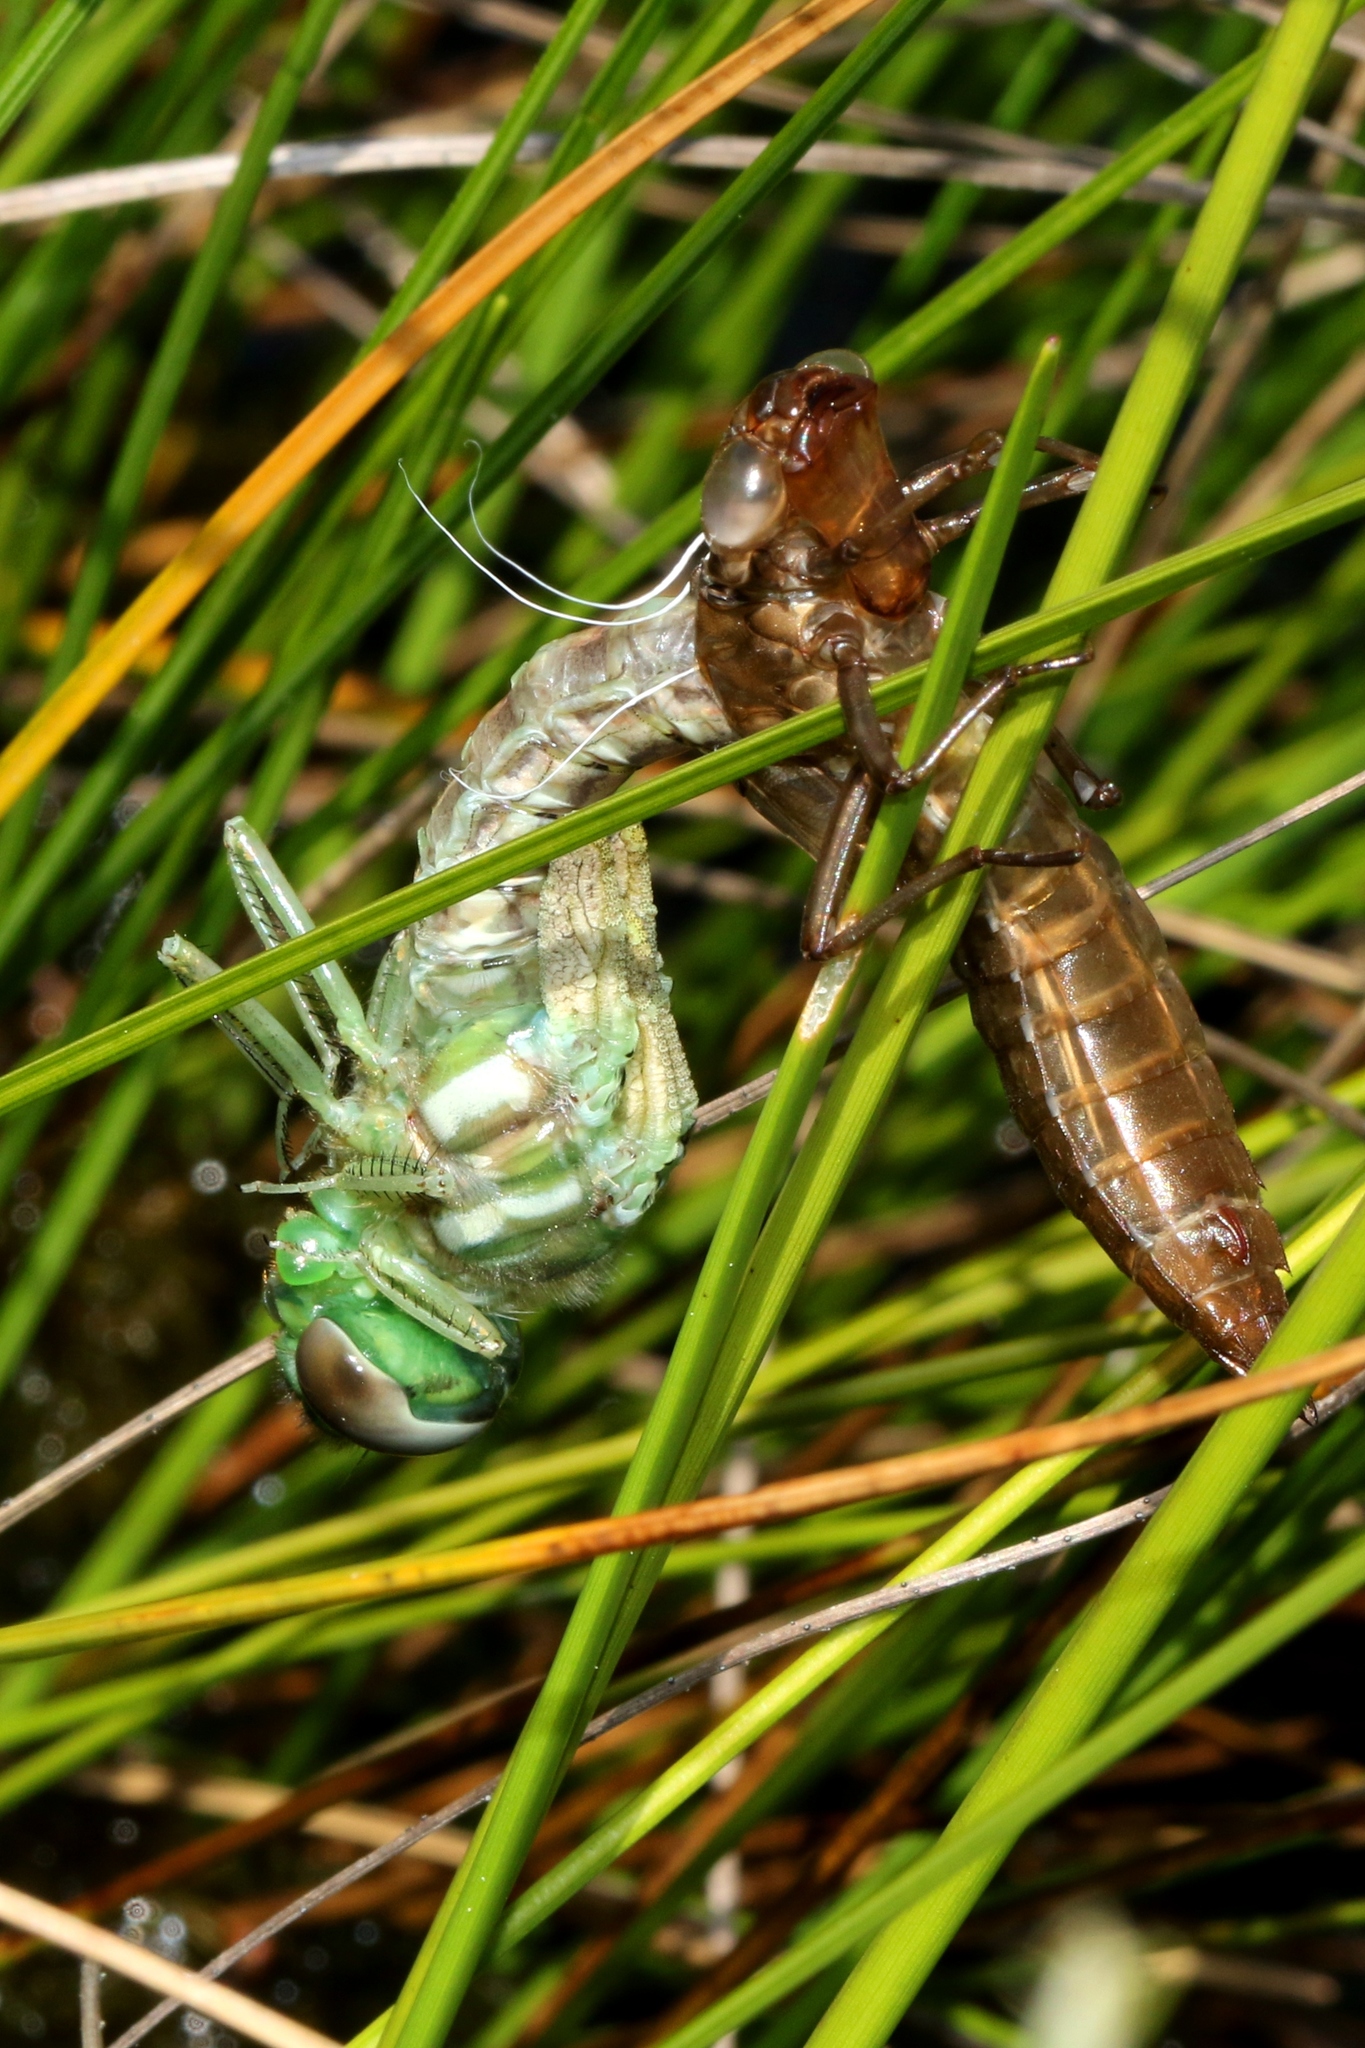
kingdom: Animalia
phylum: Arthropoda
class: Insecta
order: Odonata
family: Aeshnidae
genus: Aeshna
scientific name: Aeshna subarctica
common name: Subarctic darner
